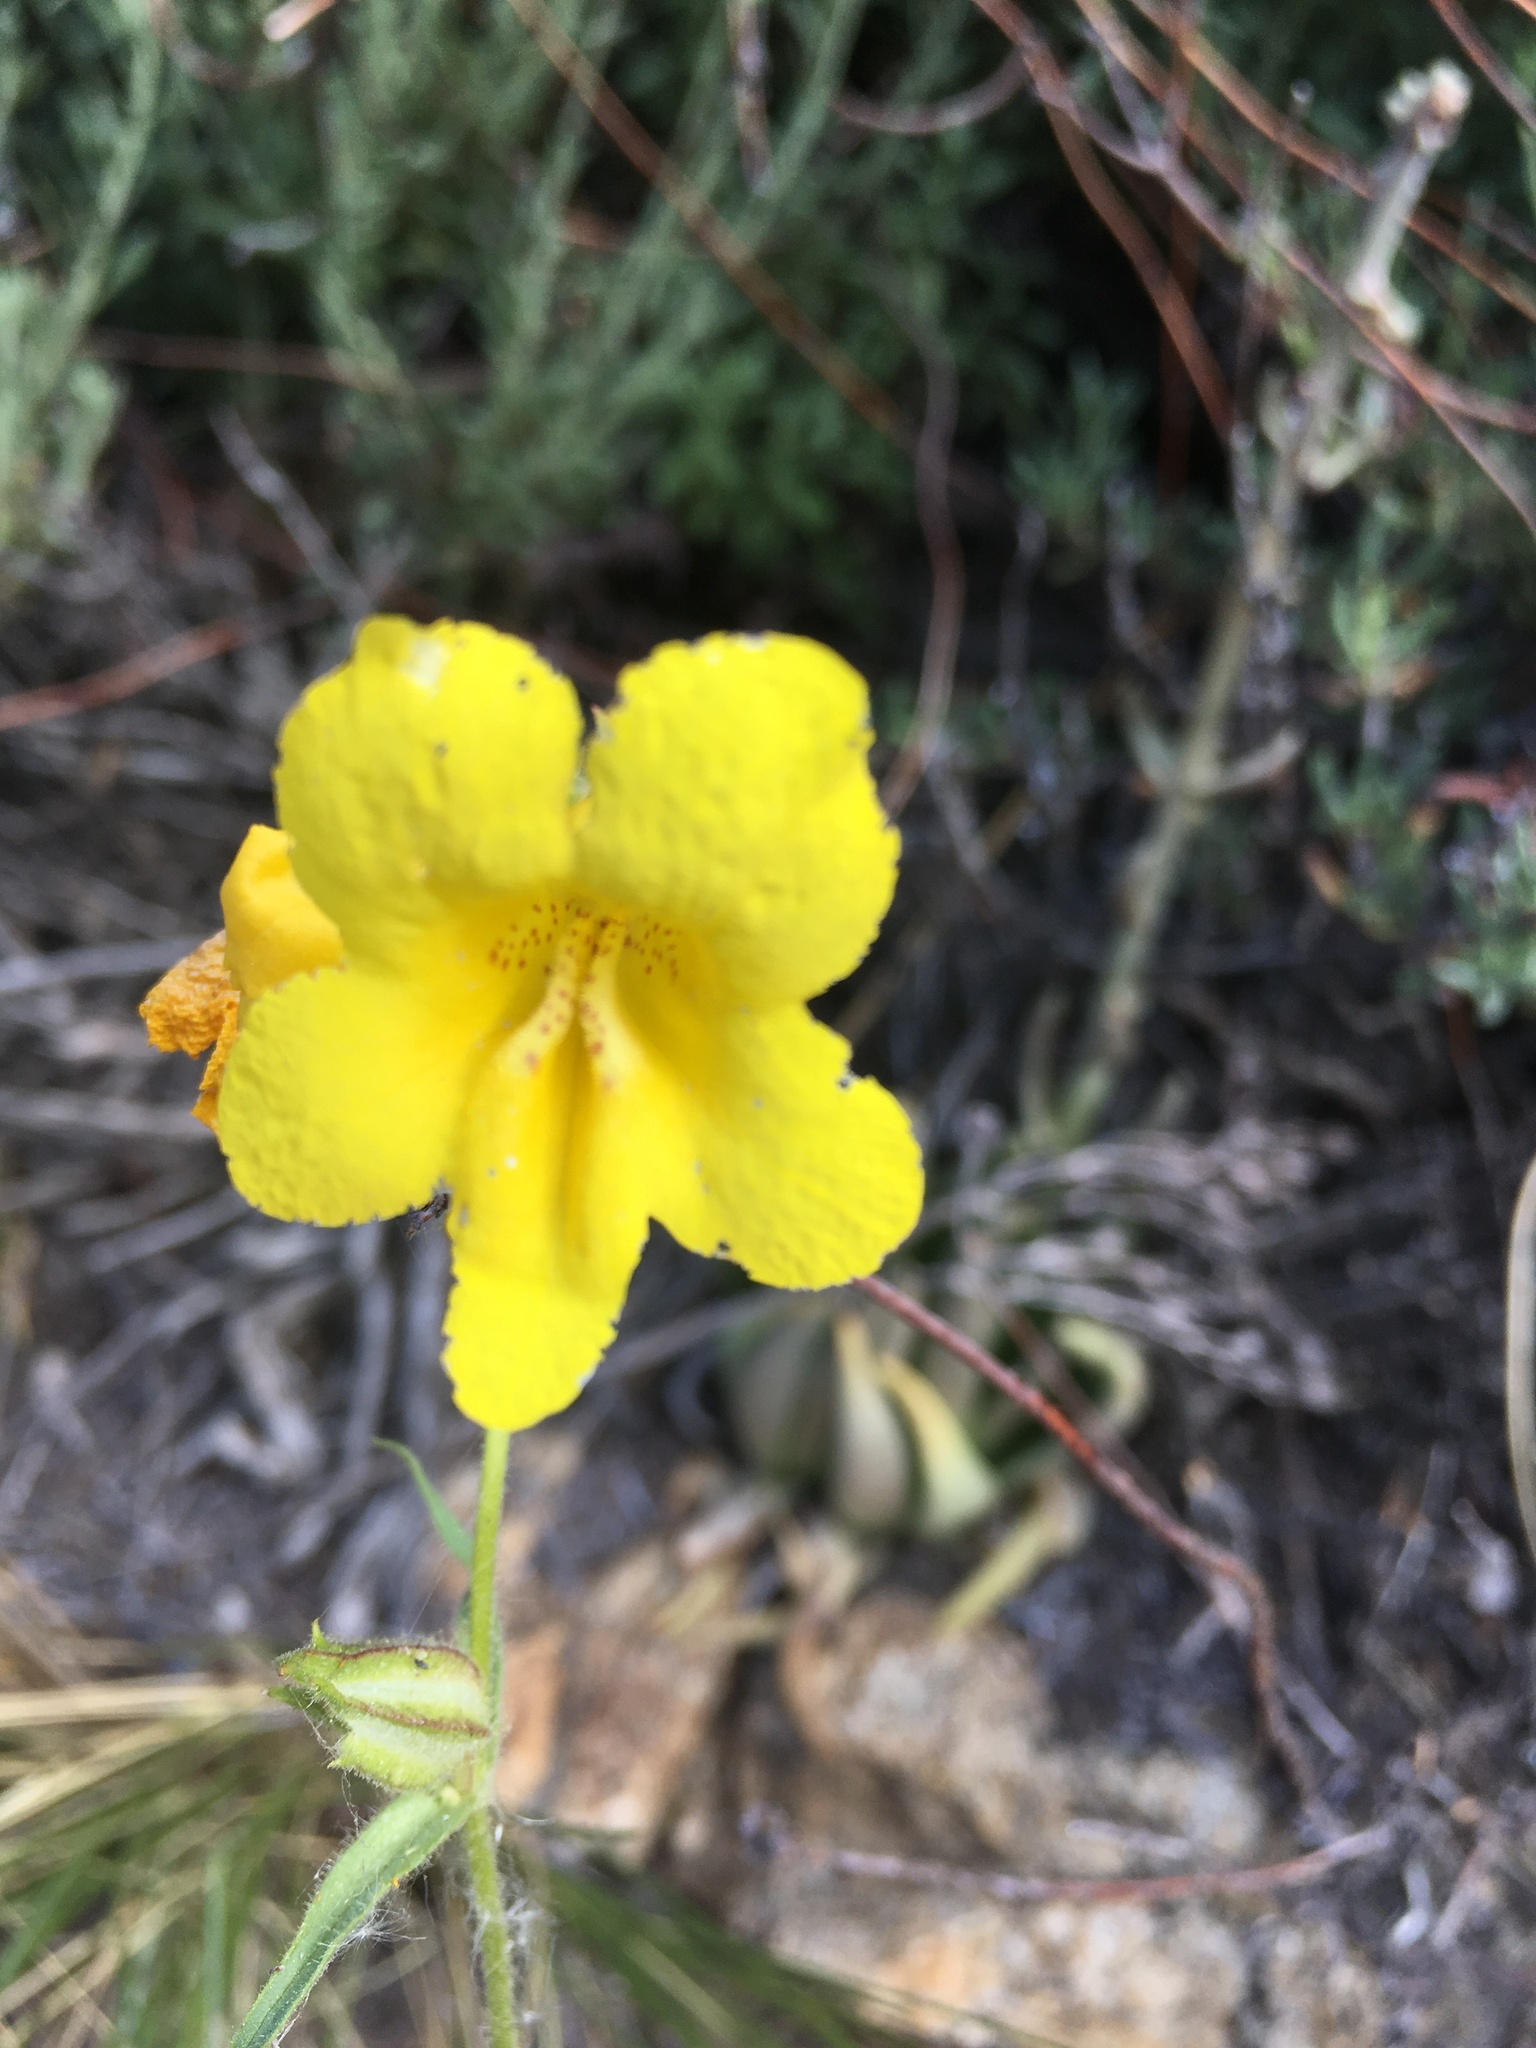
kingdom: Plantae
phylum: Tracheophyta
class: Magnoliopsida
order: Lamiales
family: Phrymaceae
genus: Diplacus
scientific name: Diplacus brevipes
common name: Wide-throat yellow monkey-flower
